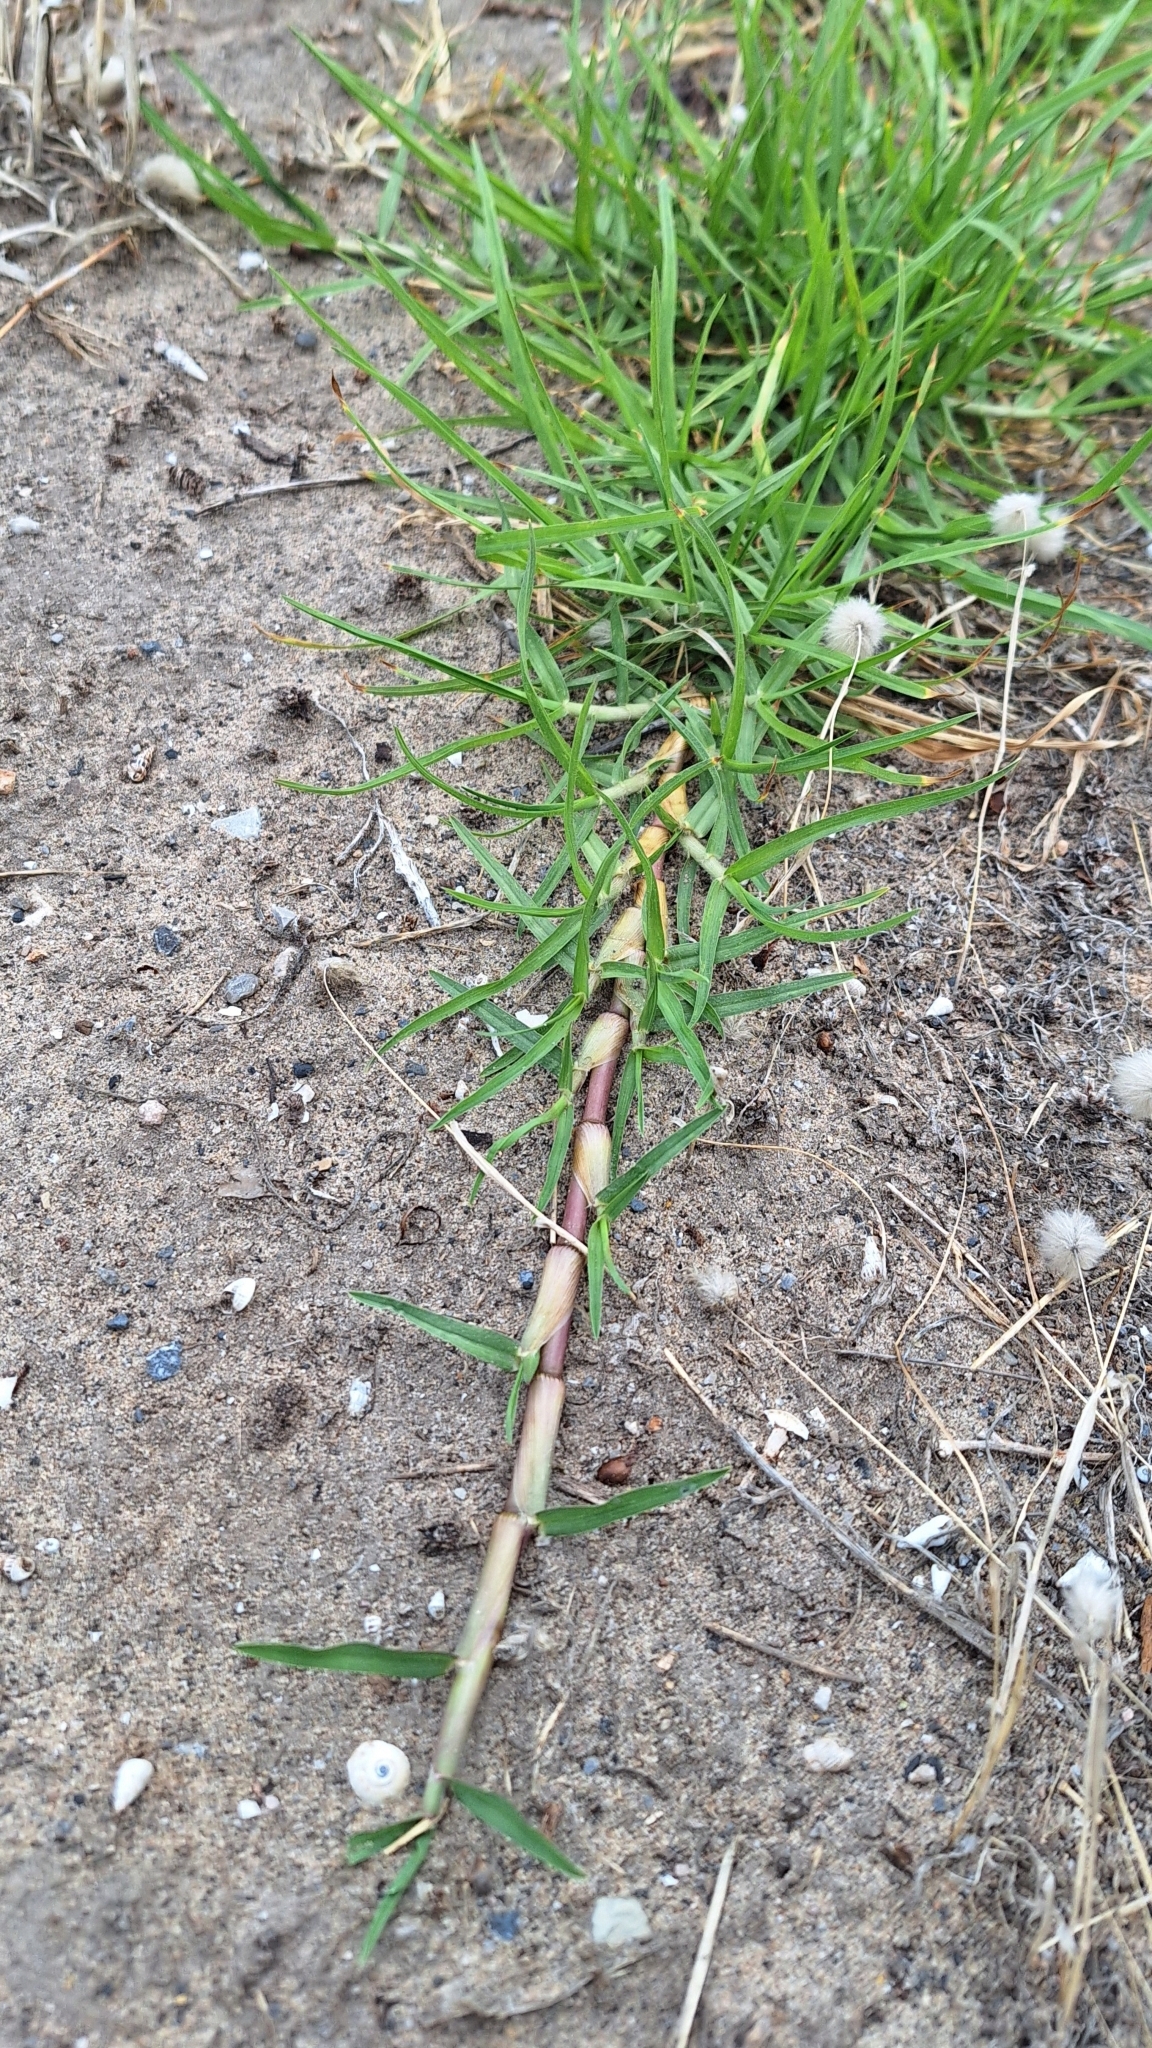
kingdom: Plantae
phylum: Tracheophyta
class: Liliopsida
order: Poales
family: Poaceae
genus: Cenchrus
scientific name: Cenchrus clandestinus
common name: Kikuyugrass
